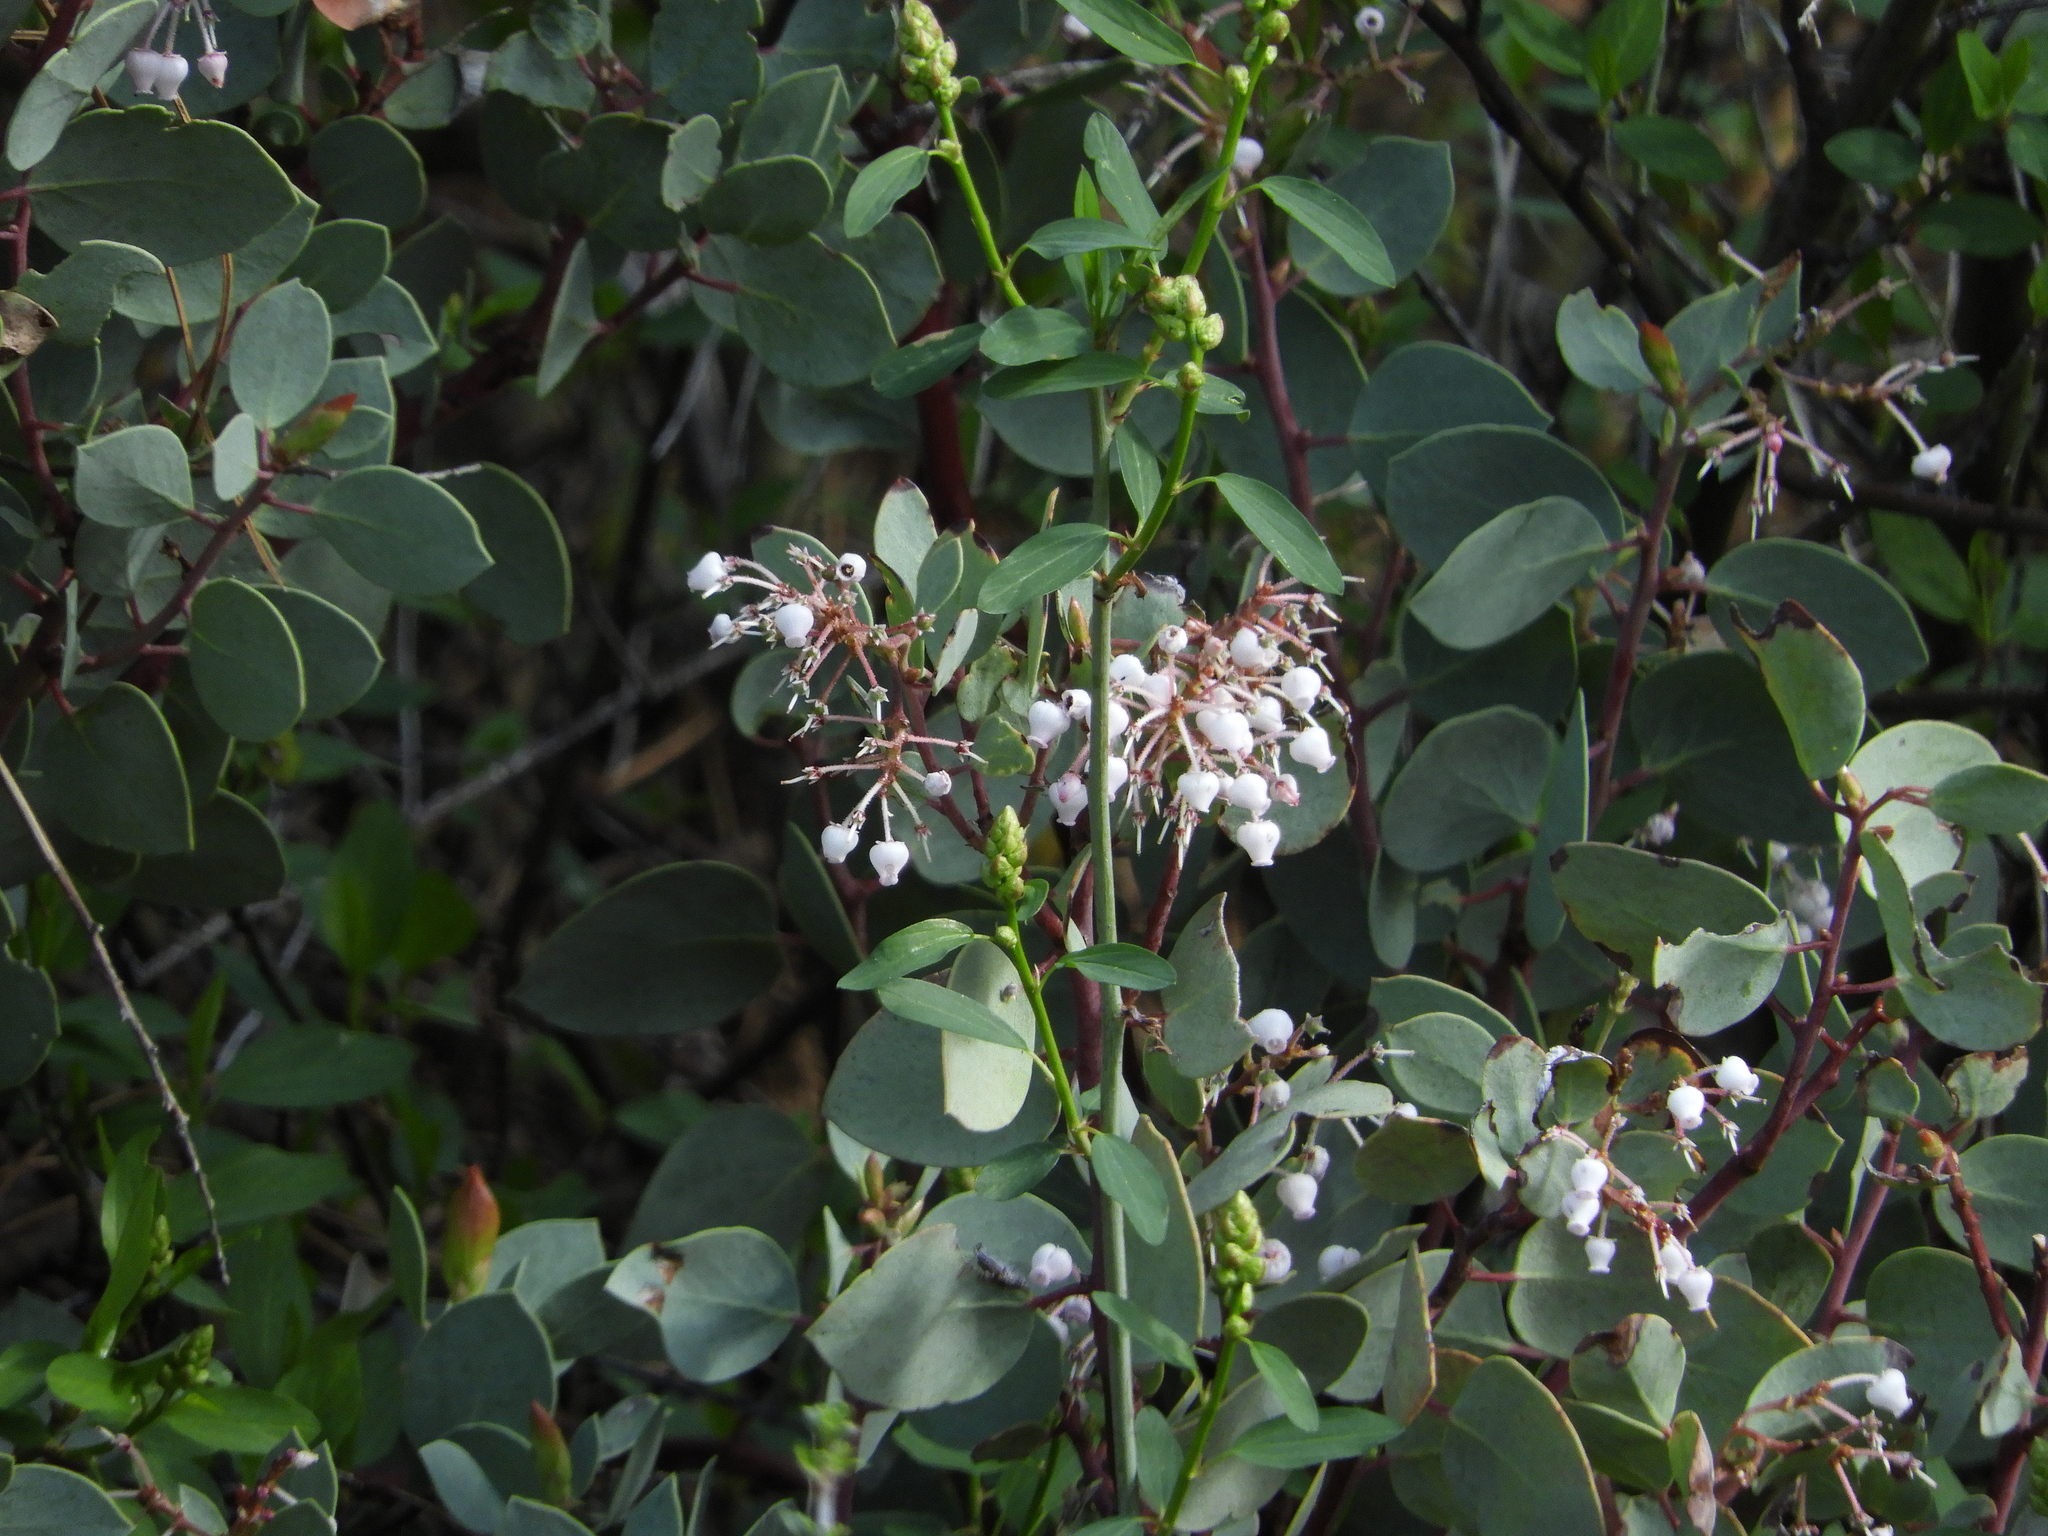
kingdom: Plantae
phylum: Tracheophyta
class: Magnoliopsida
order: Ericales
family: Ericaceae
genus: Arctostaphylos
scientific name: Arctostaphylos viscida
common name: White-leaf manzanita
